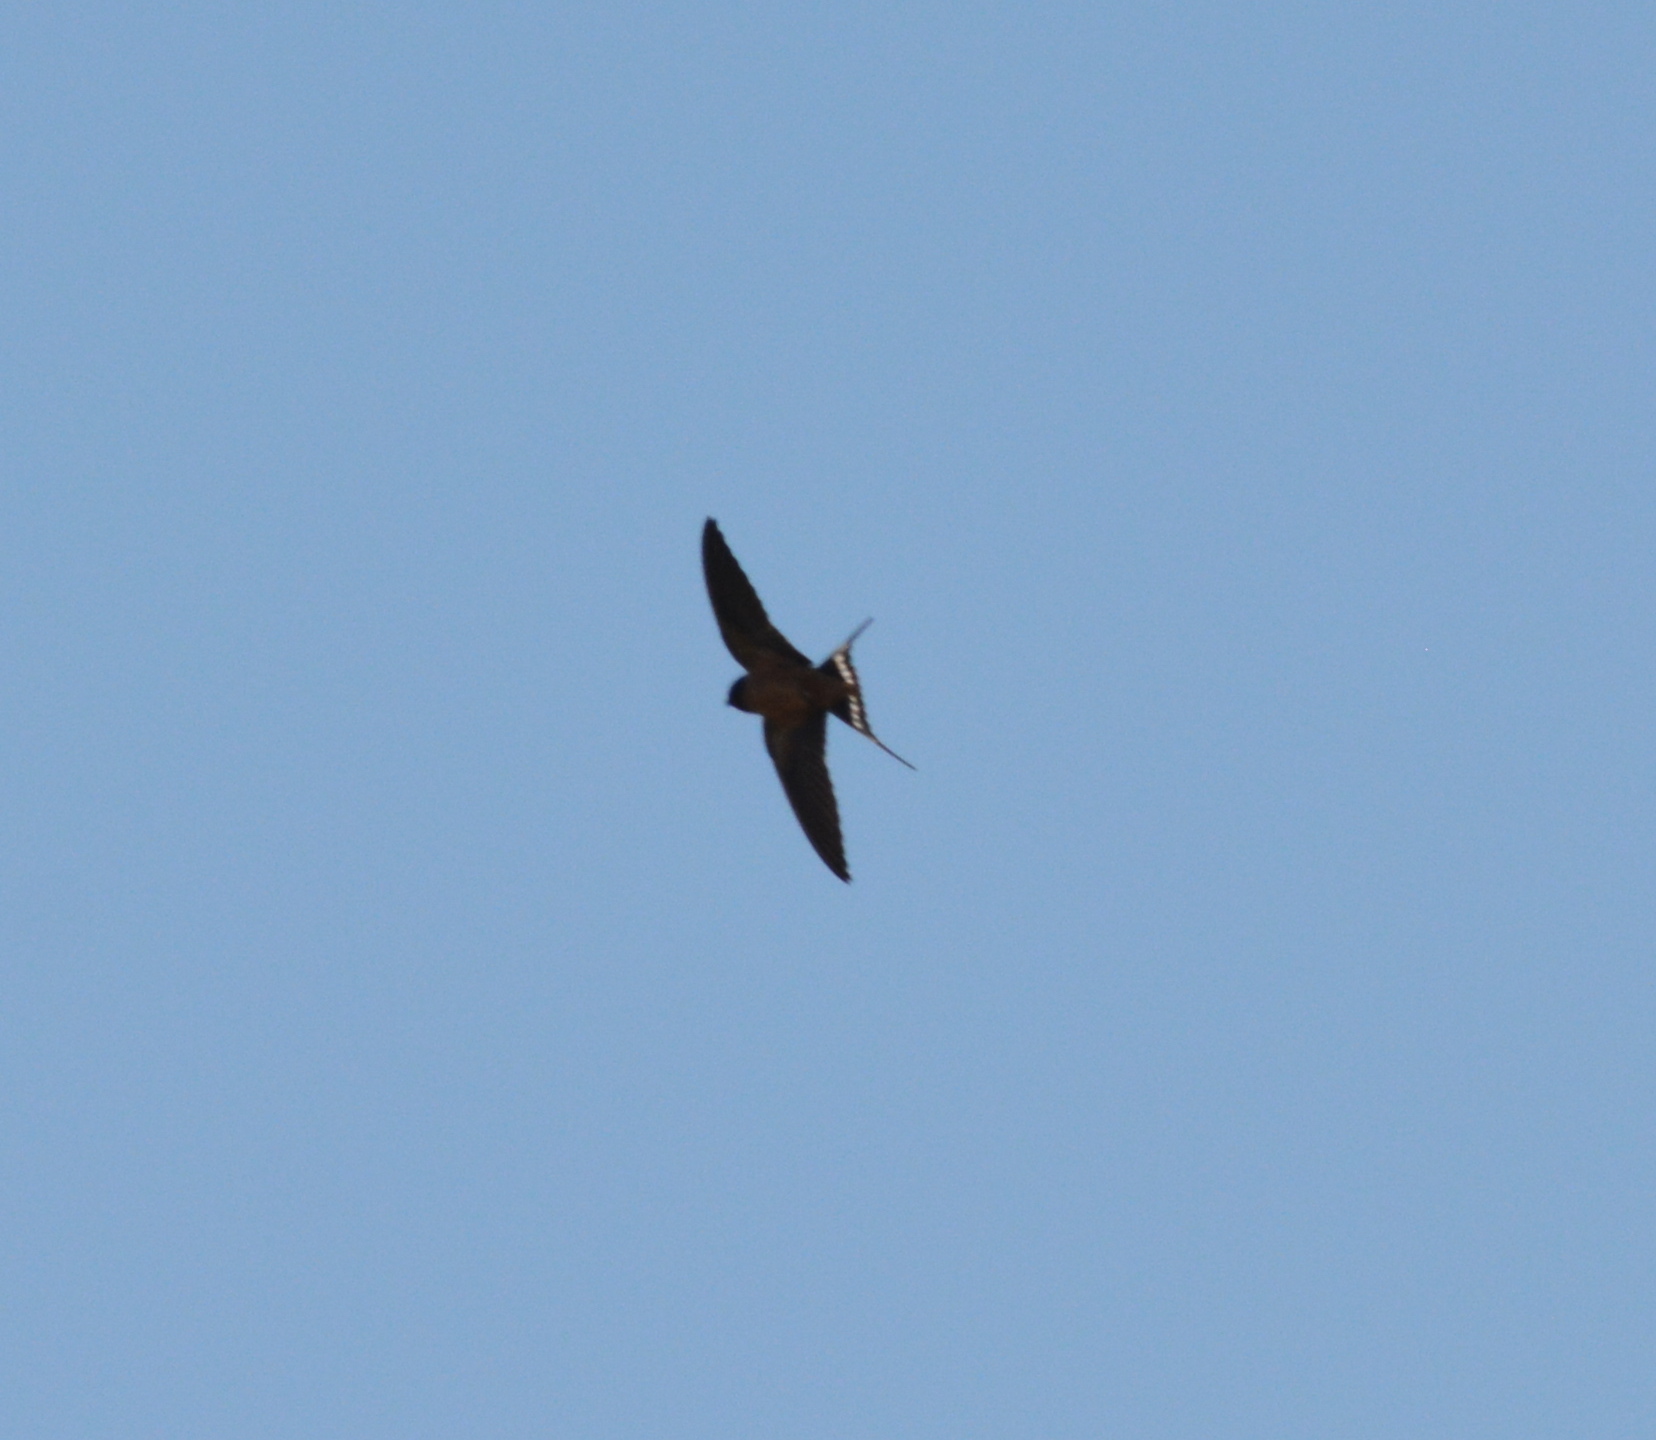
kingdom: Animalia
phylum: Chordata
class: Aves
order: Passeriformes
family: Hirundinidae
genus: Hirundo
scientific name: Hirundo rustica
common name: Barn swallow
